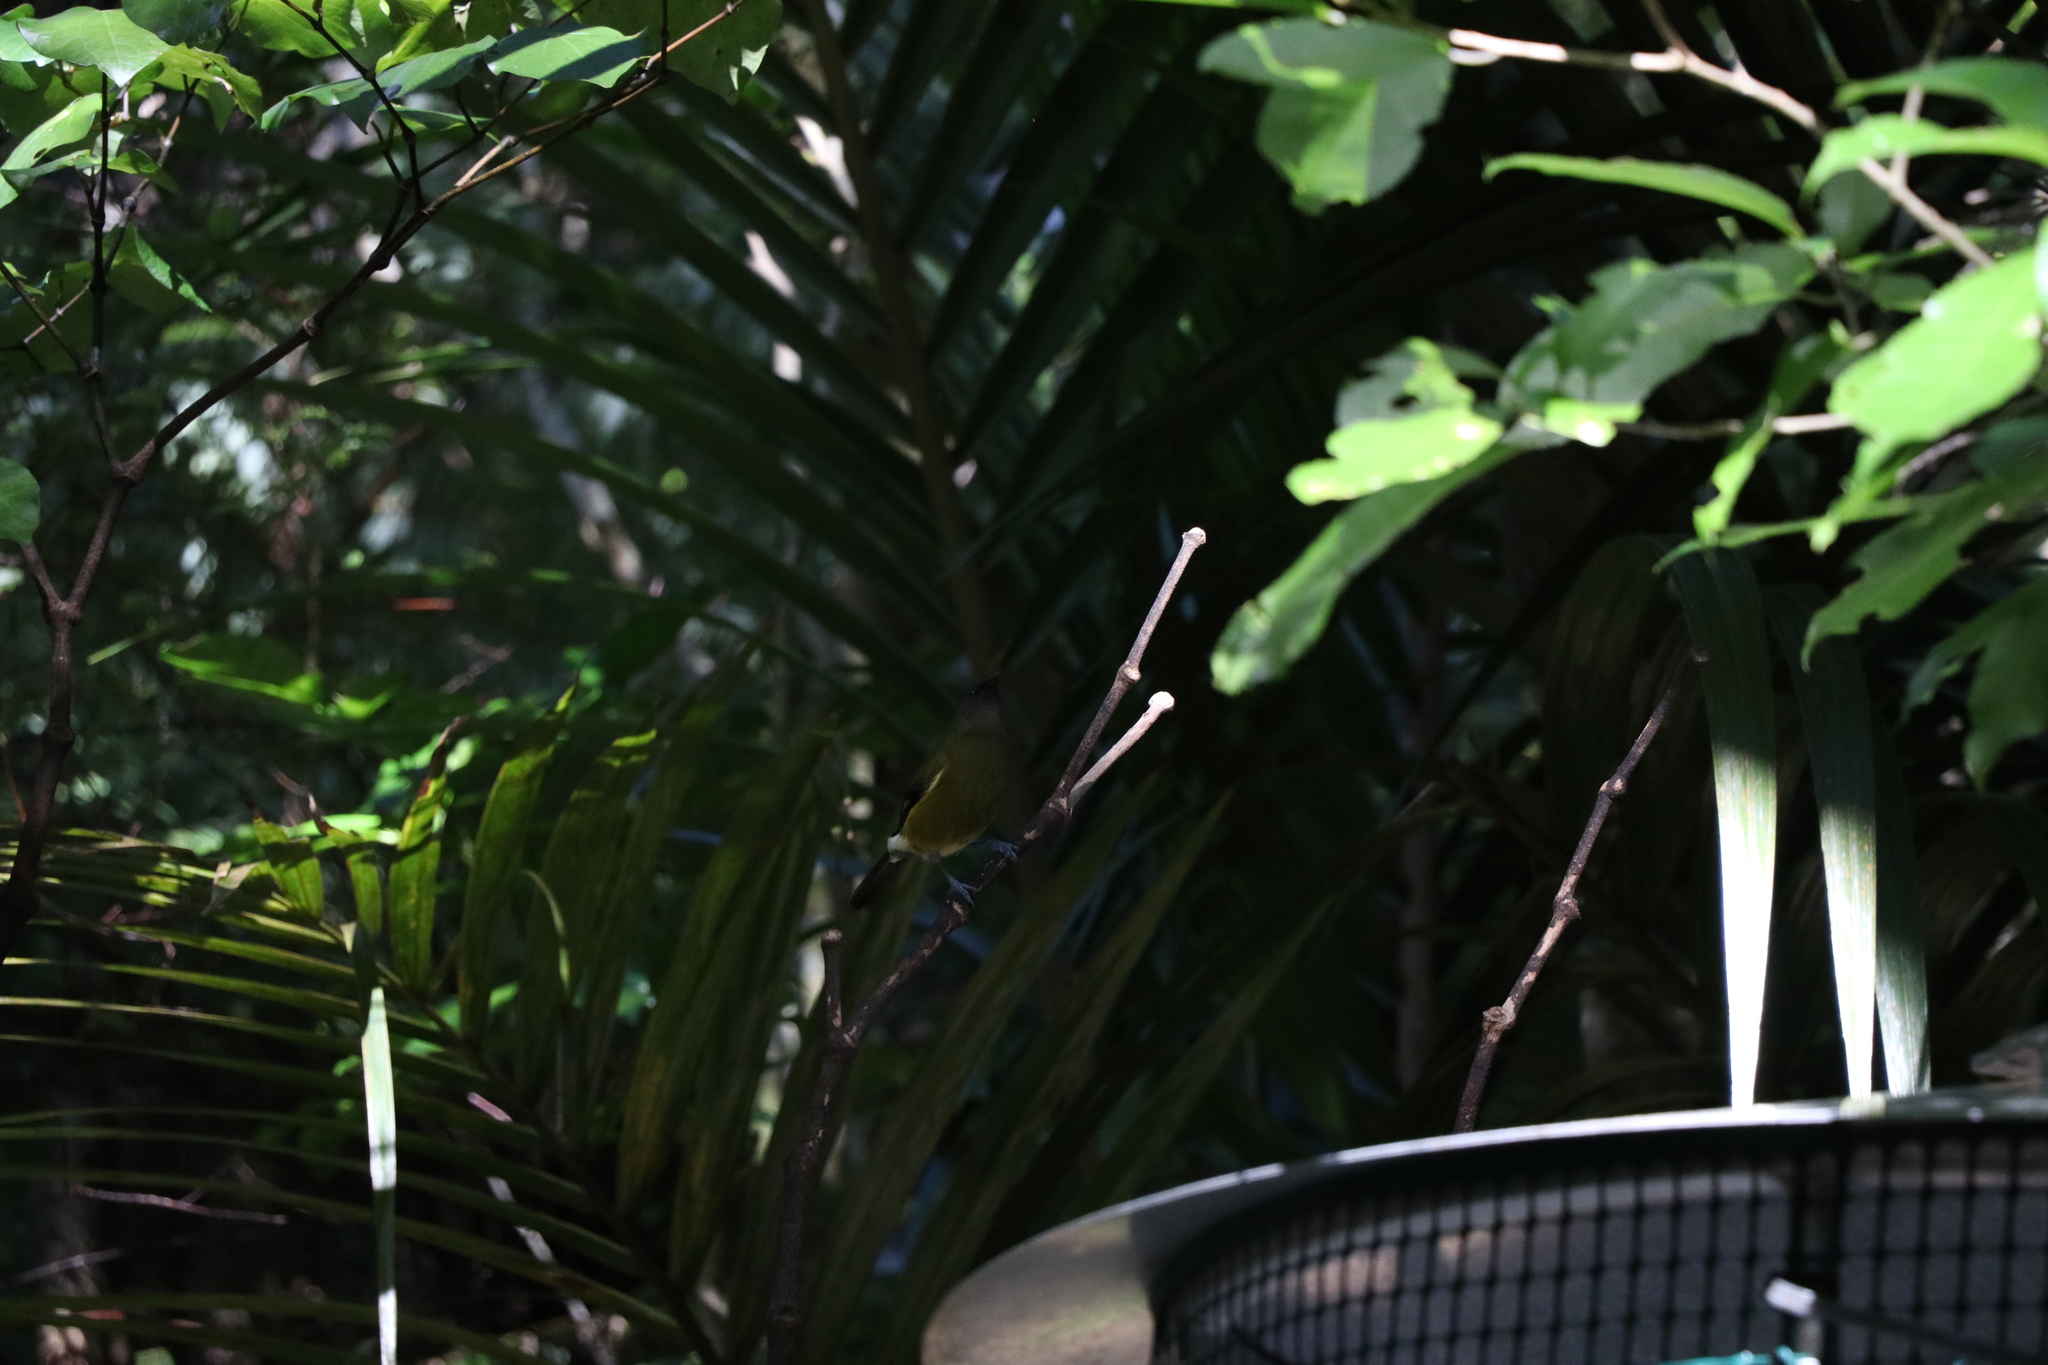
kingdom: Animalia
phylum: Chordata
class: Aves
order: Passeriformes
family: Meliphagidae
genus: Anthornis
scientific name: Anthornis melanura
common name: New zealand bellbird
